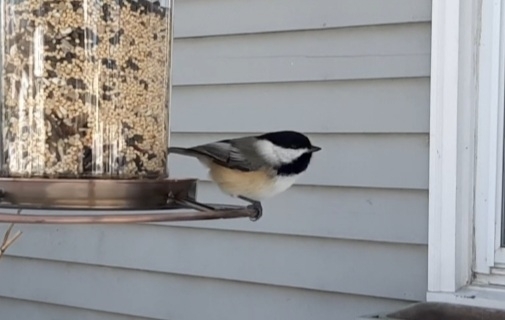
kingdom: Animalia
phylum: Chordata
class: Aves
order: Passeriformes
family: Paridae
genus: Poecile
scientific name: Poecile atricapillus
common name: Black-capped chickadee
